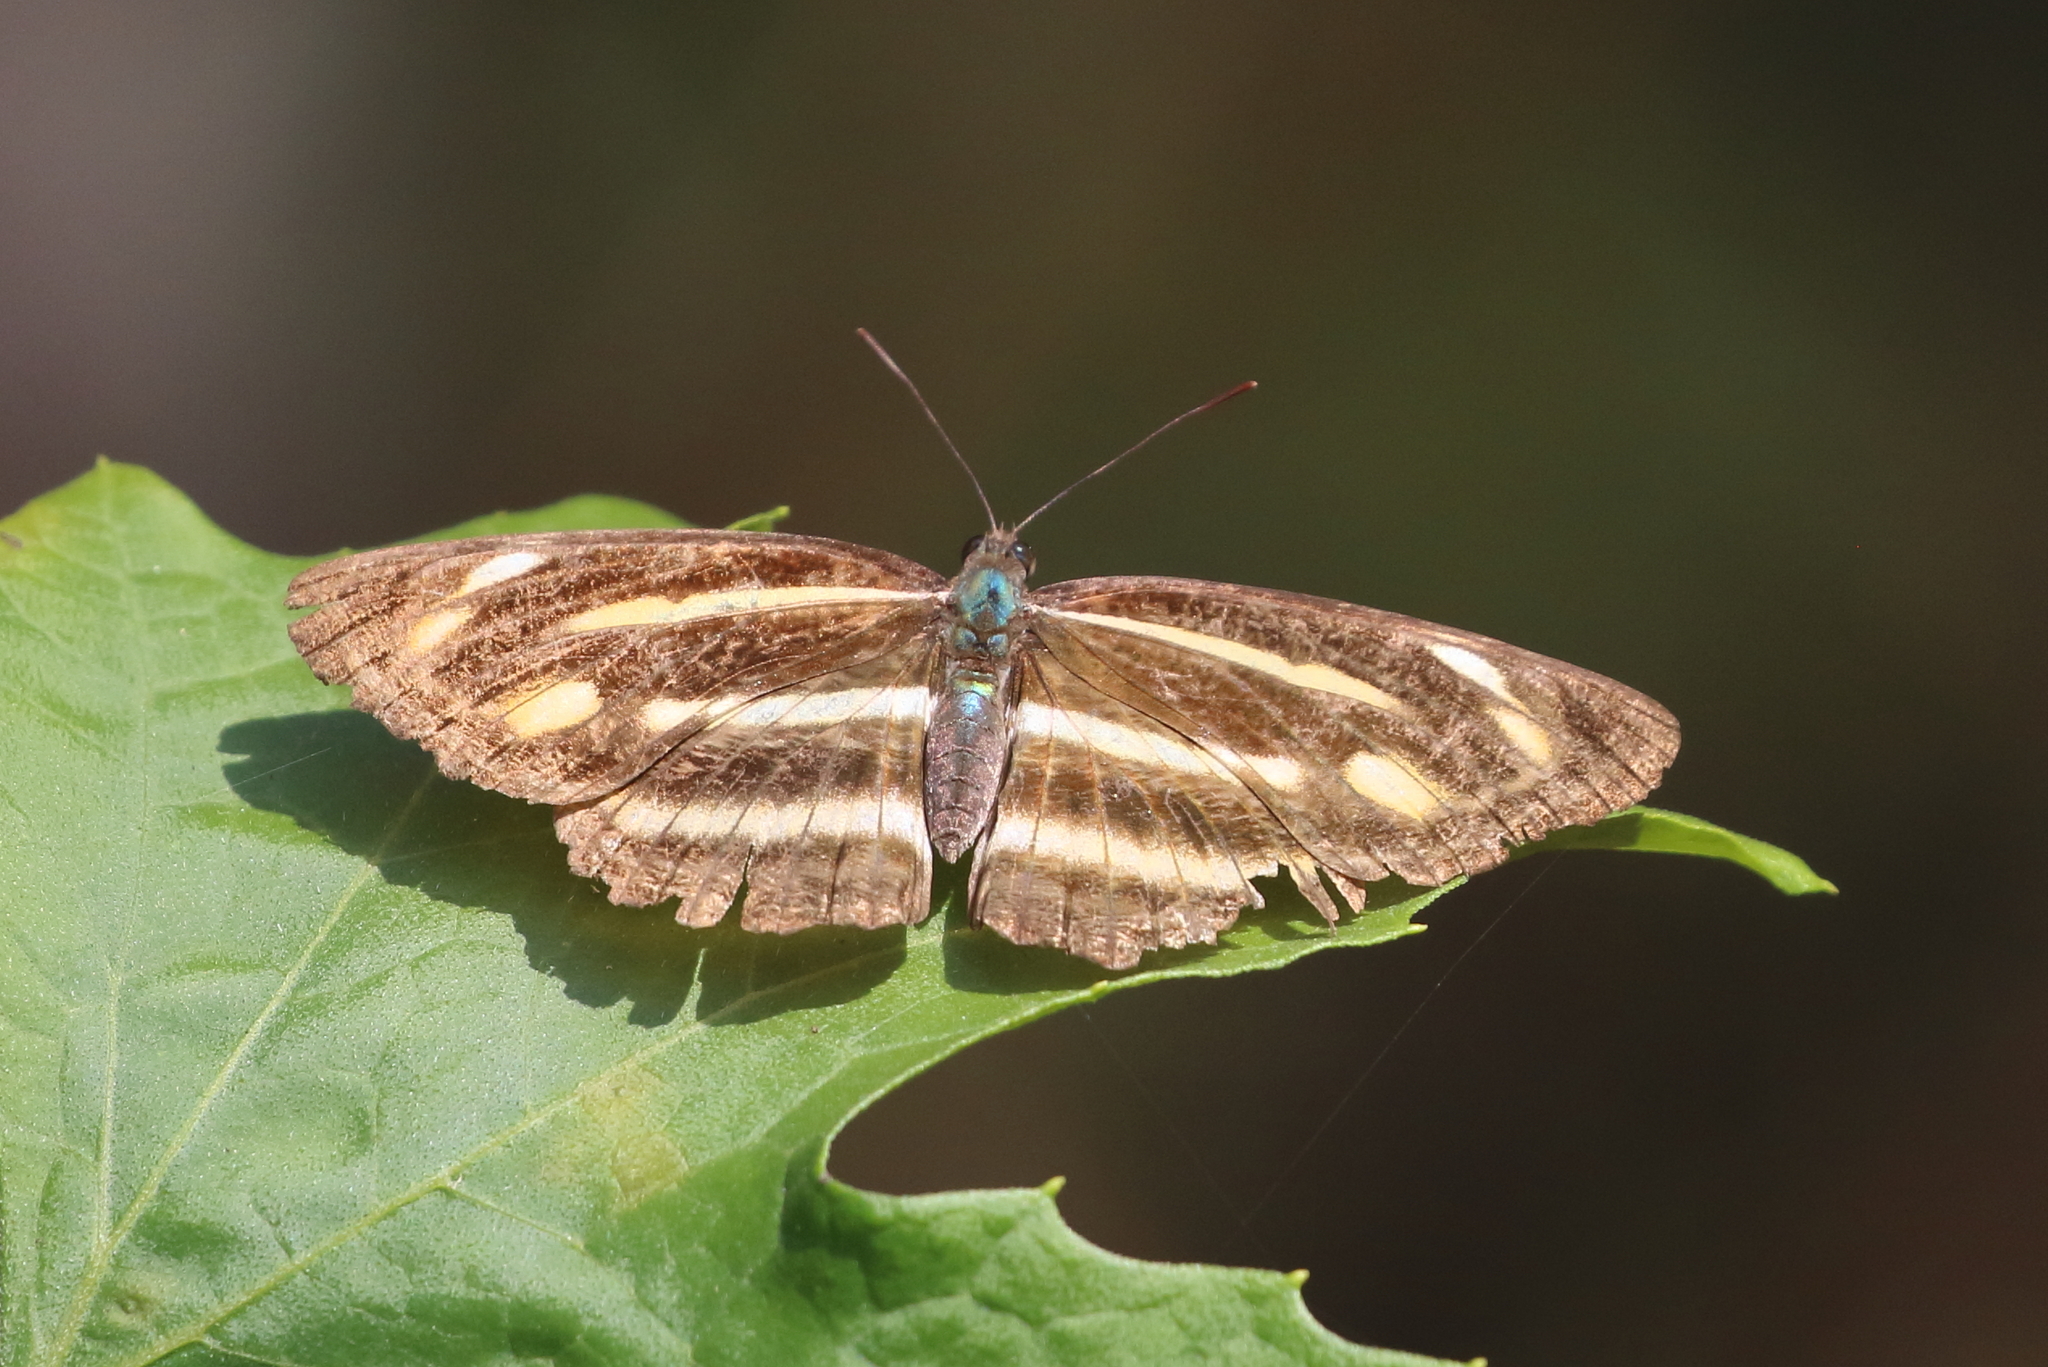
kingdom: Animalia
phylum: Arthropoda
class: Insecta
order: Lepidoptera
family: Nymphalidae
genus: Neptis
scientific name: Neptis ananta
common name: Yellow sailer
